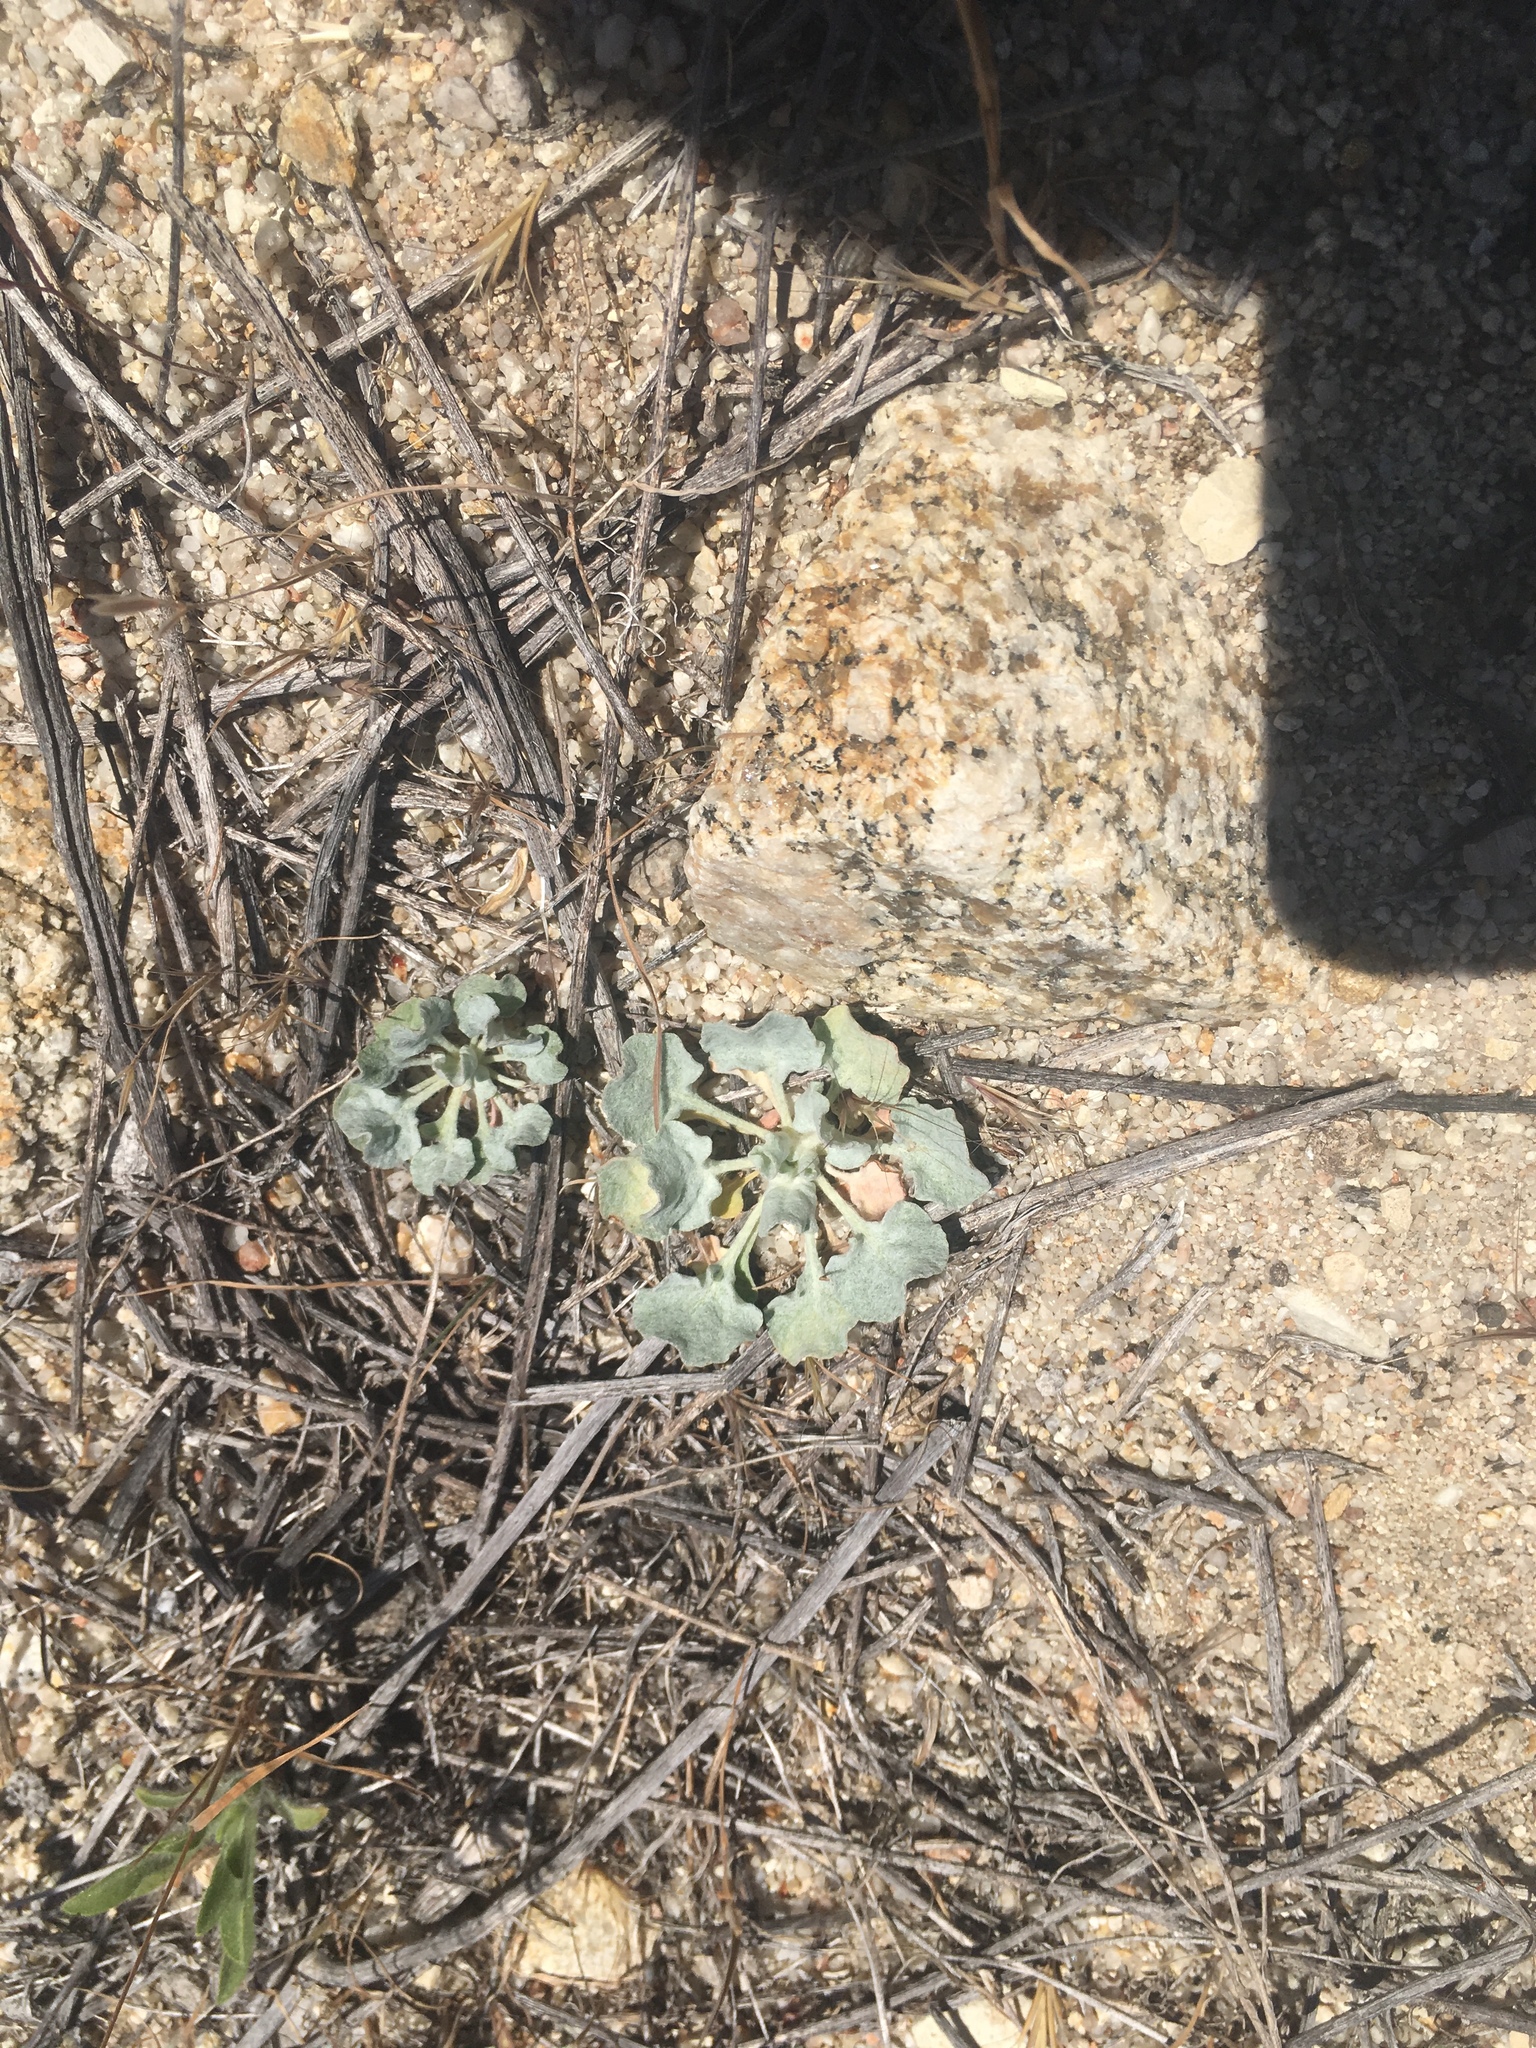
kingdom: Plantae
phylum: Tracheophyta
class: Magnoliopsida
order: Caryophyllales
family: Polygonaceae
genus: Eriogonum
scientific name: Eriogonum elegans
